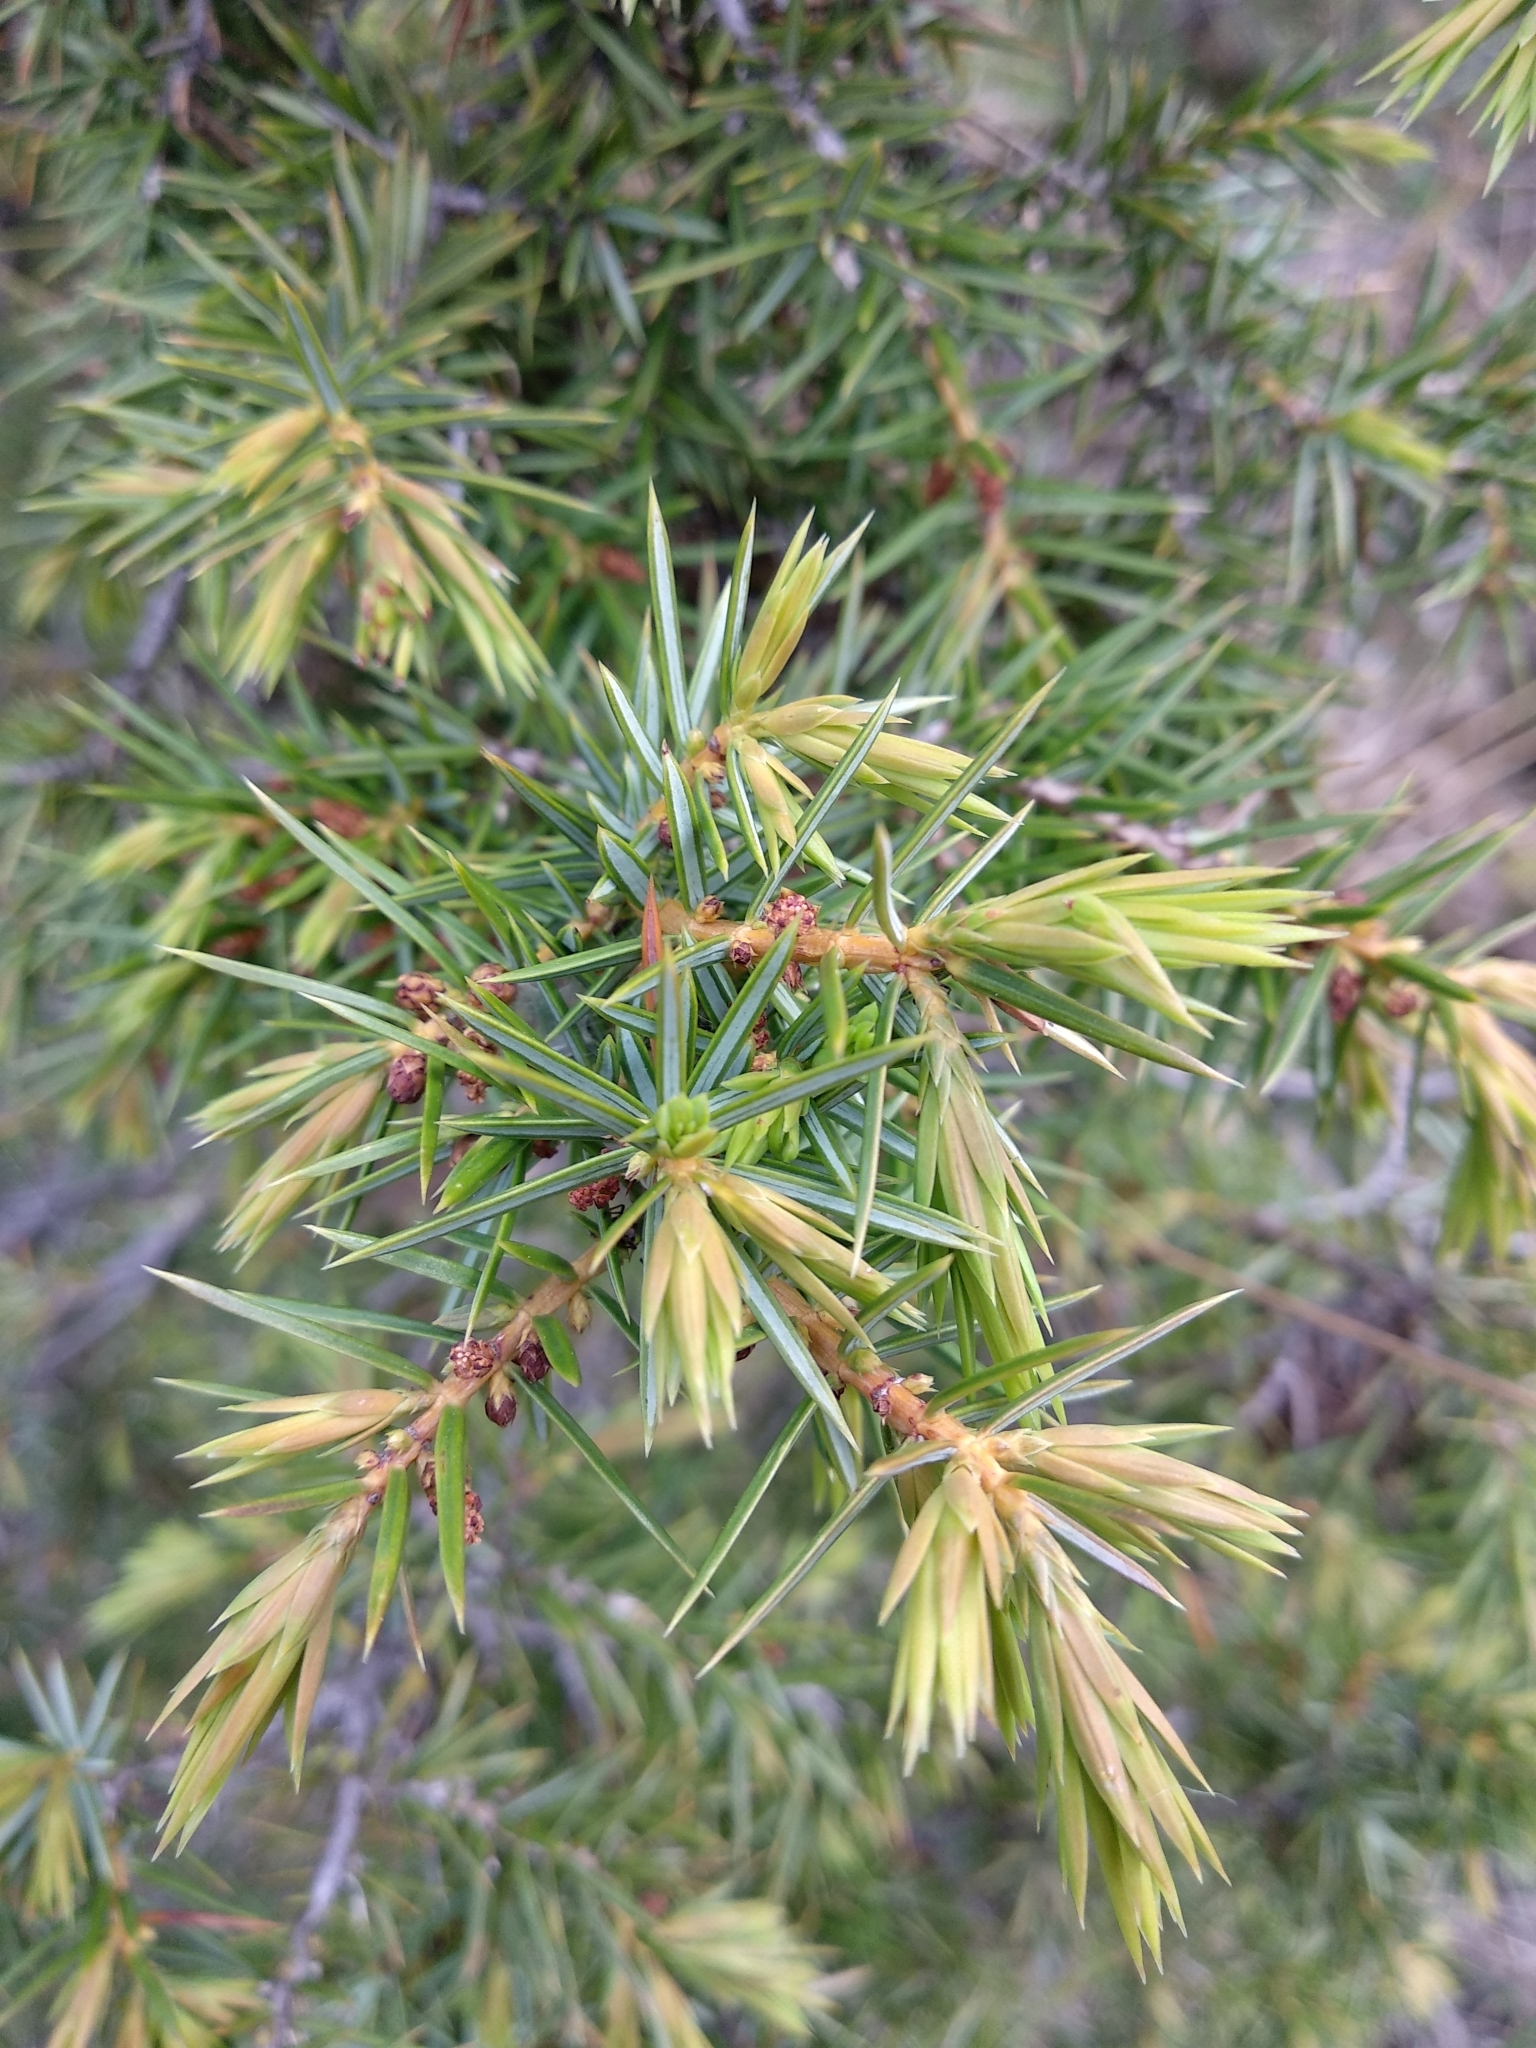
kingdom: Plantae
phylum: Tracheophyta
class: Pinopsida
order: Pinales
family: Cupressaceae
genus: Juniperus
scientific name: Juniperus communis
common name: Common juniper
